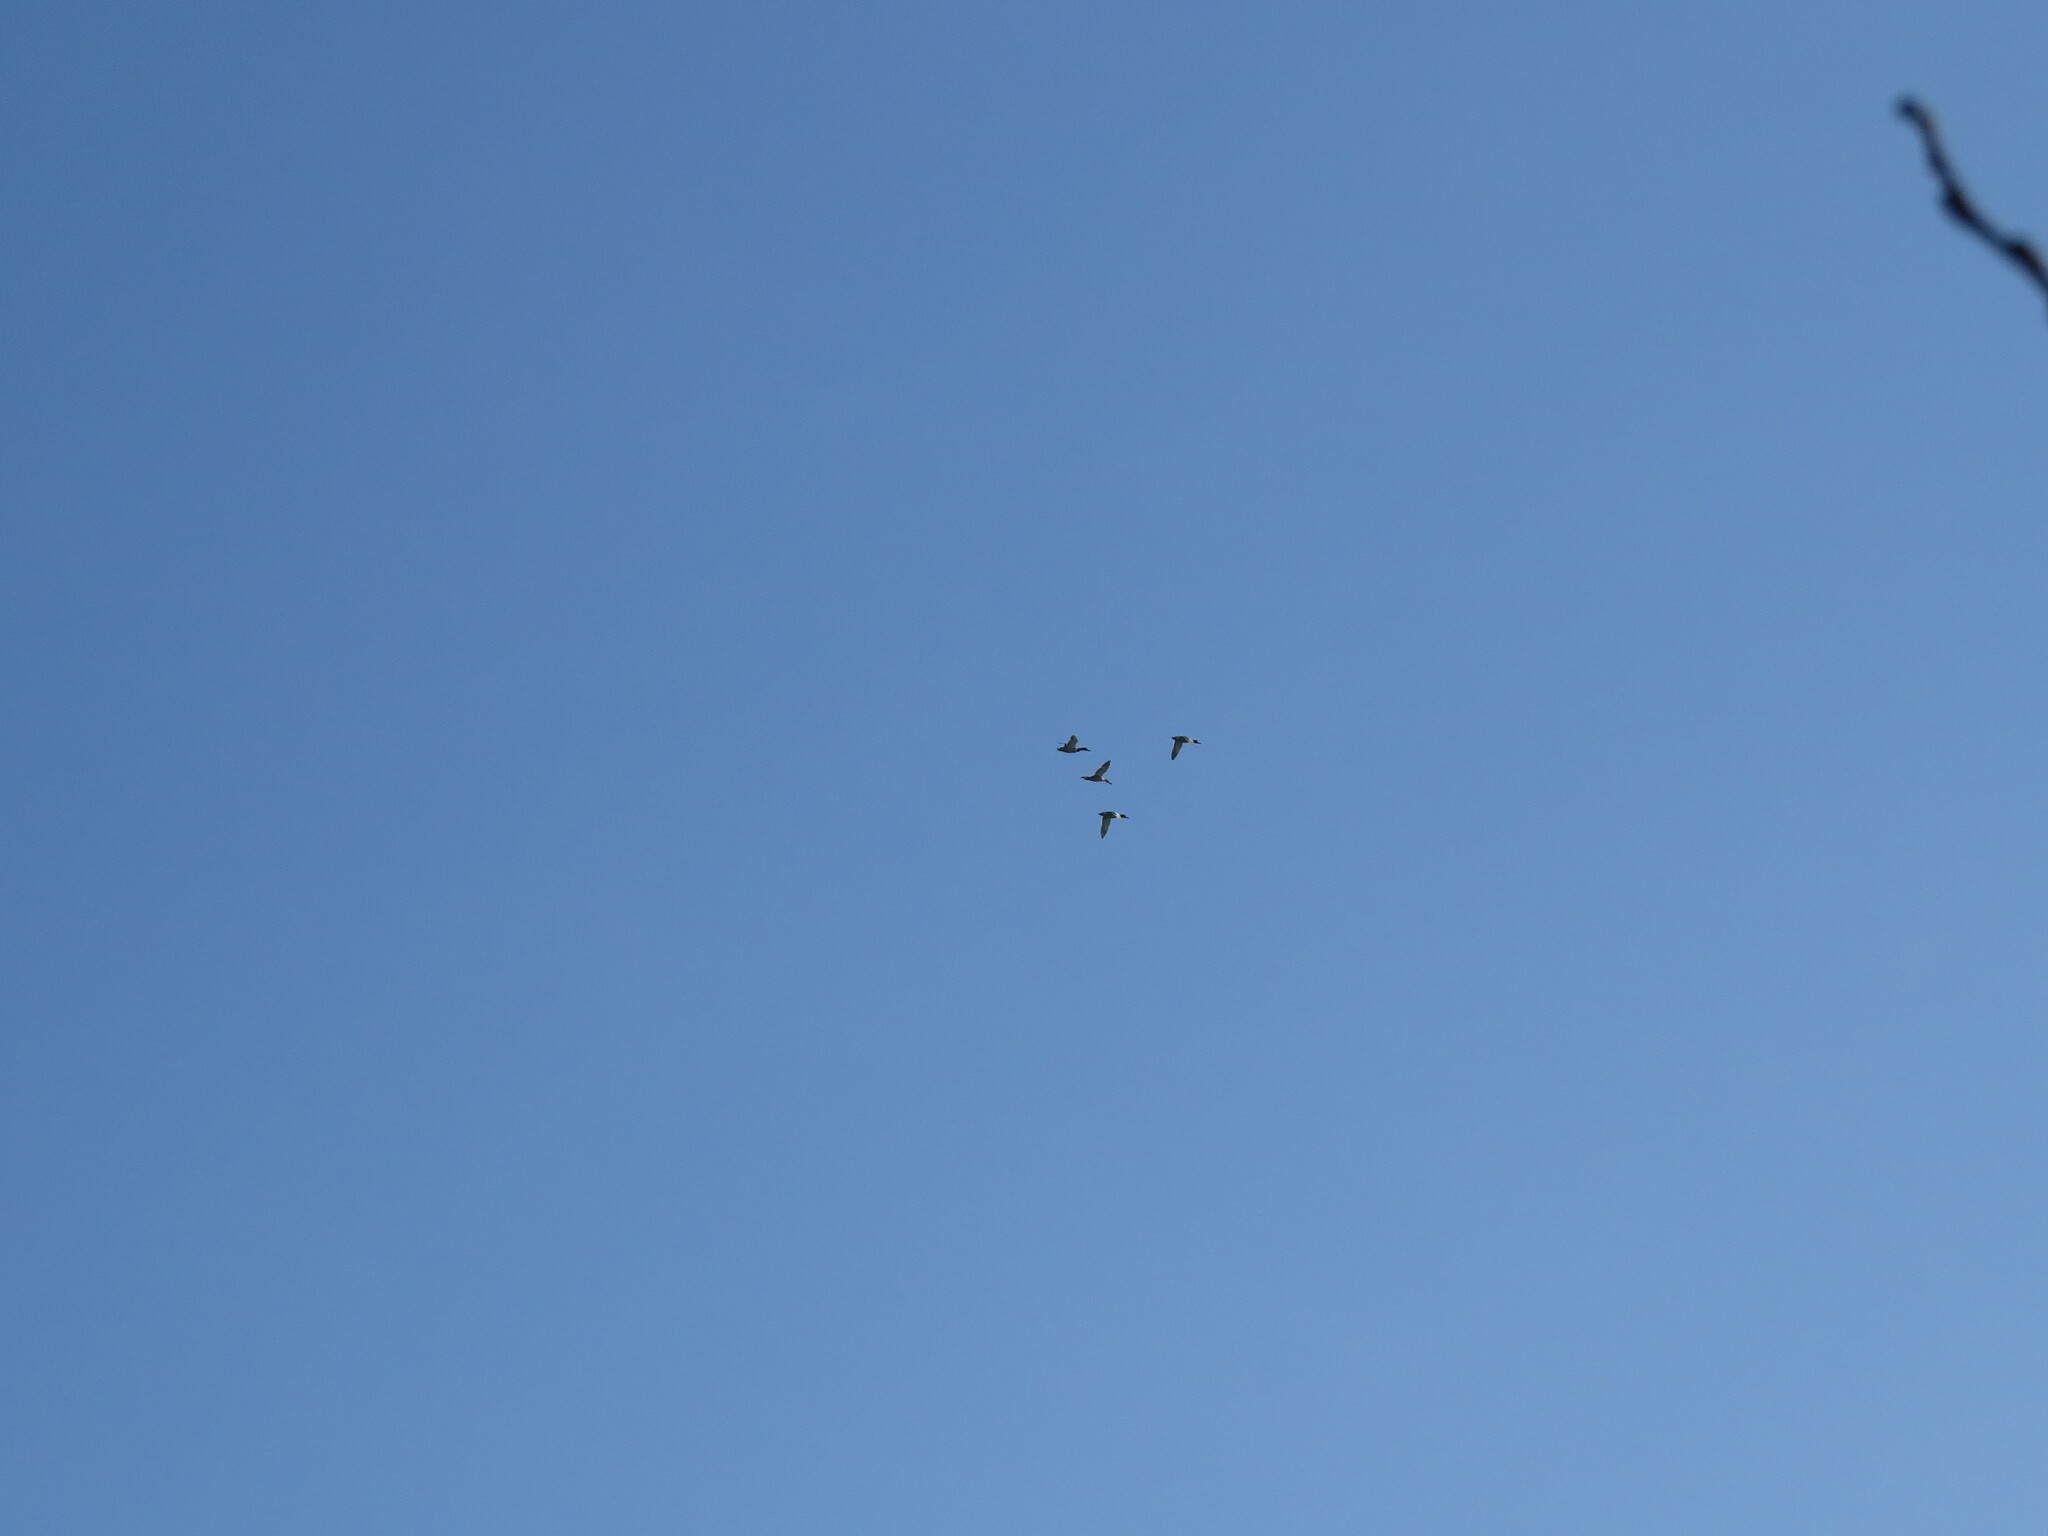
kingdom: Animalia
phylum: Chordata
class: Aves
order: Anseriformes
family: Anatidae
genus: Anas
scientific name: Anas platyrhynchos
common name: Mallard
